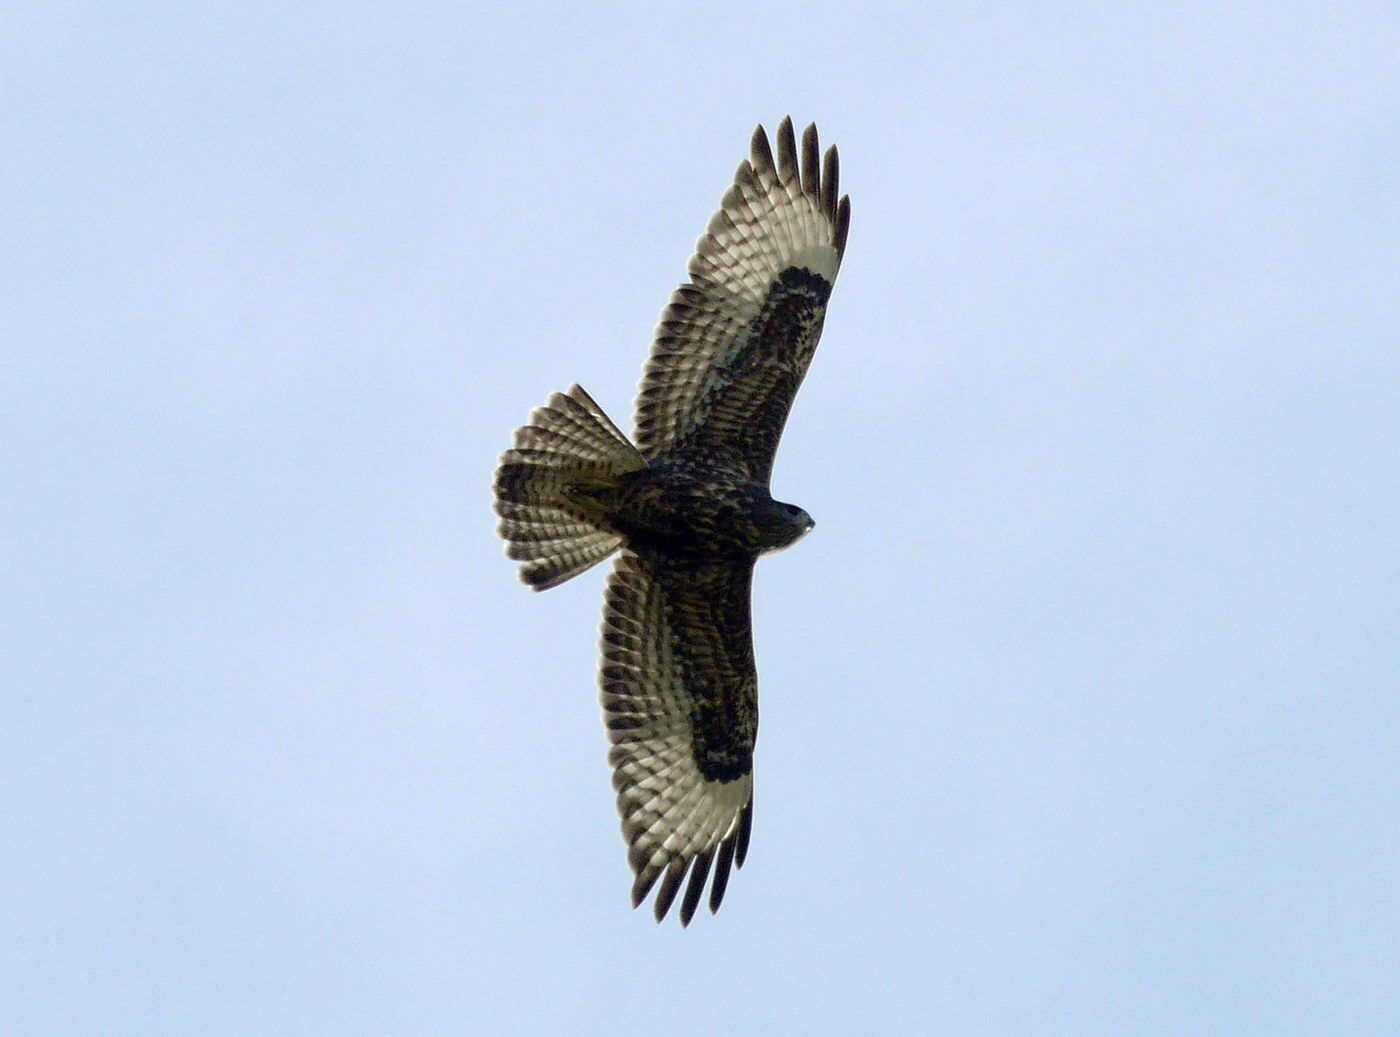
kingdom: Animalia
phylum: Chordata
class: Aves
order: Accipitriformes
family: Accipitridae
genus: Buteo
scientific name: Buteo buteo
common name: Common buzzard
